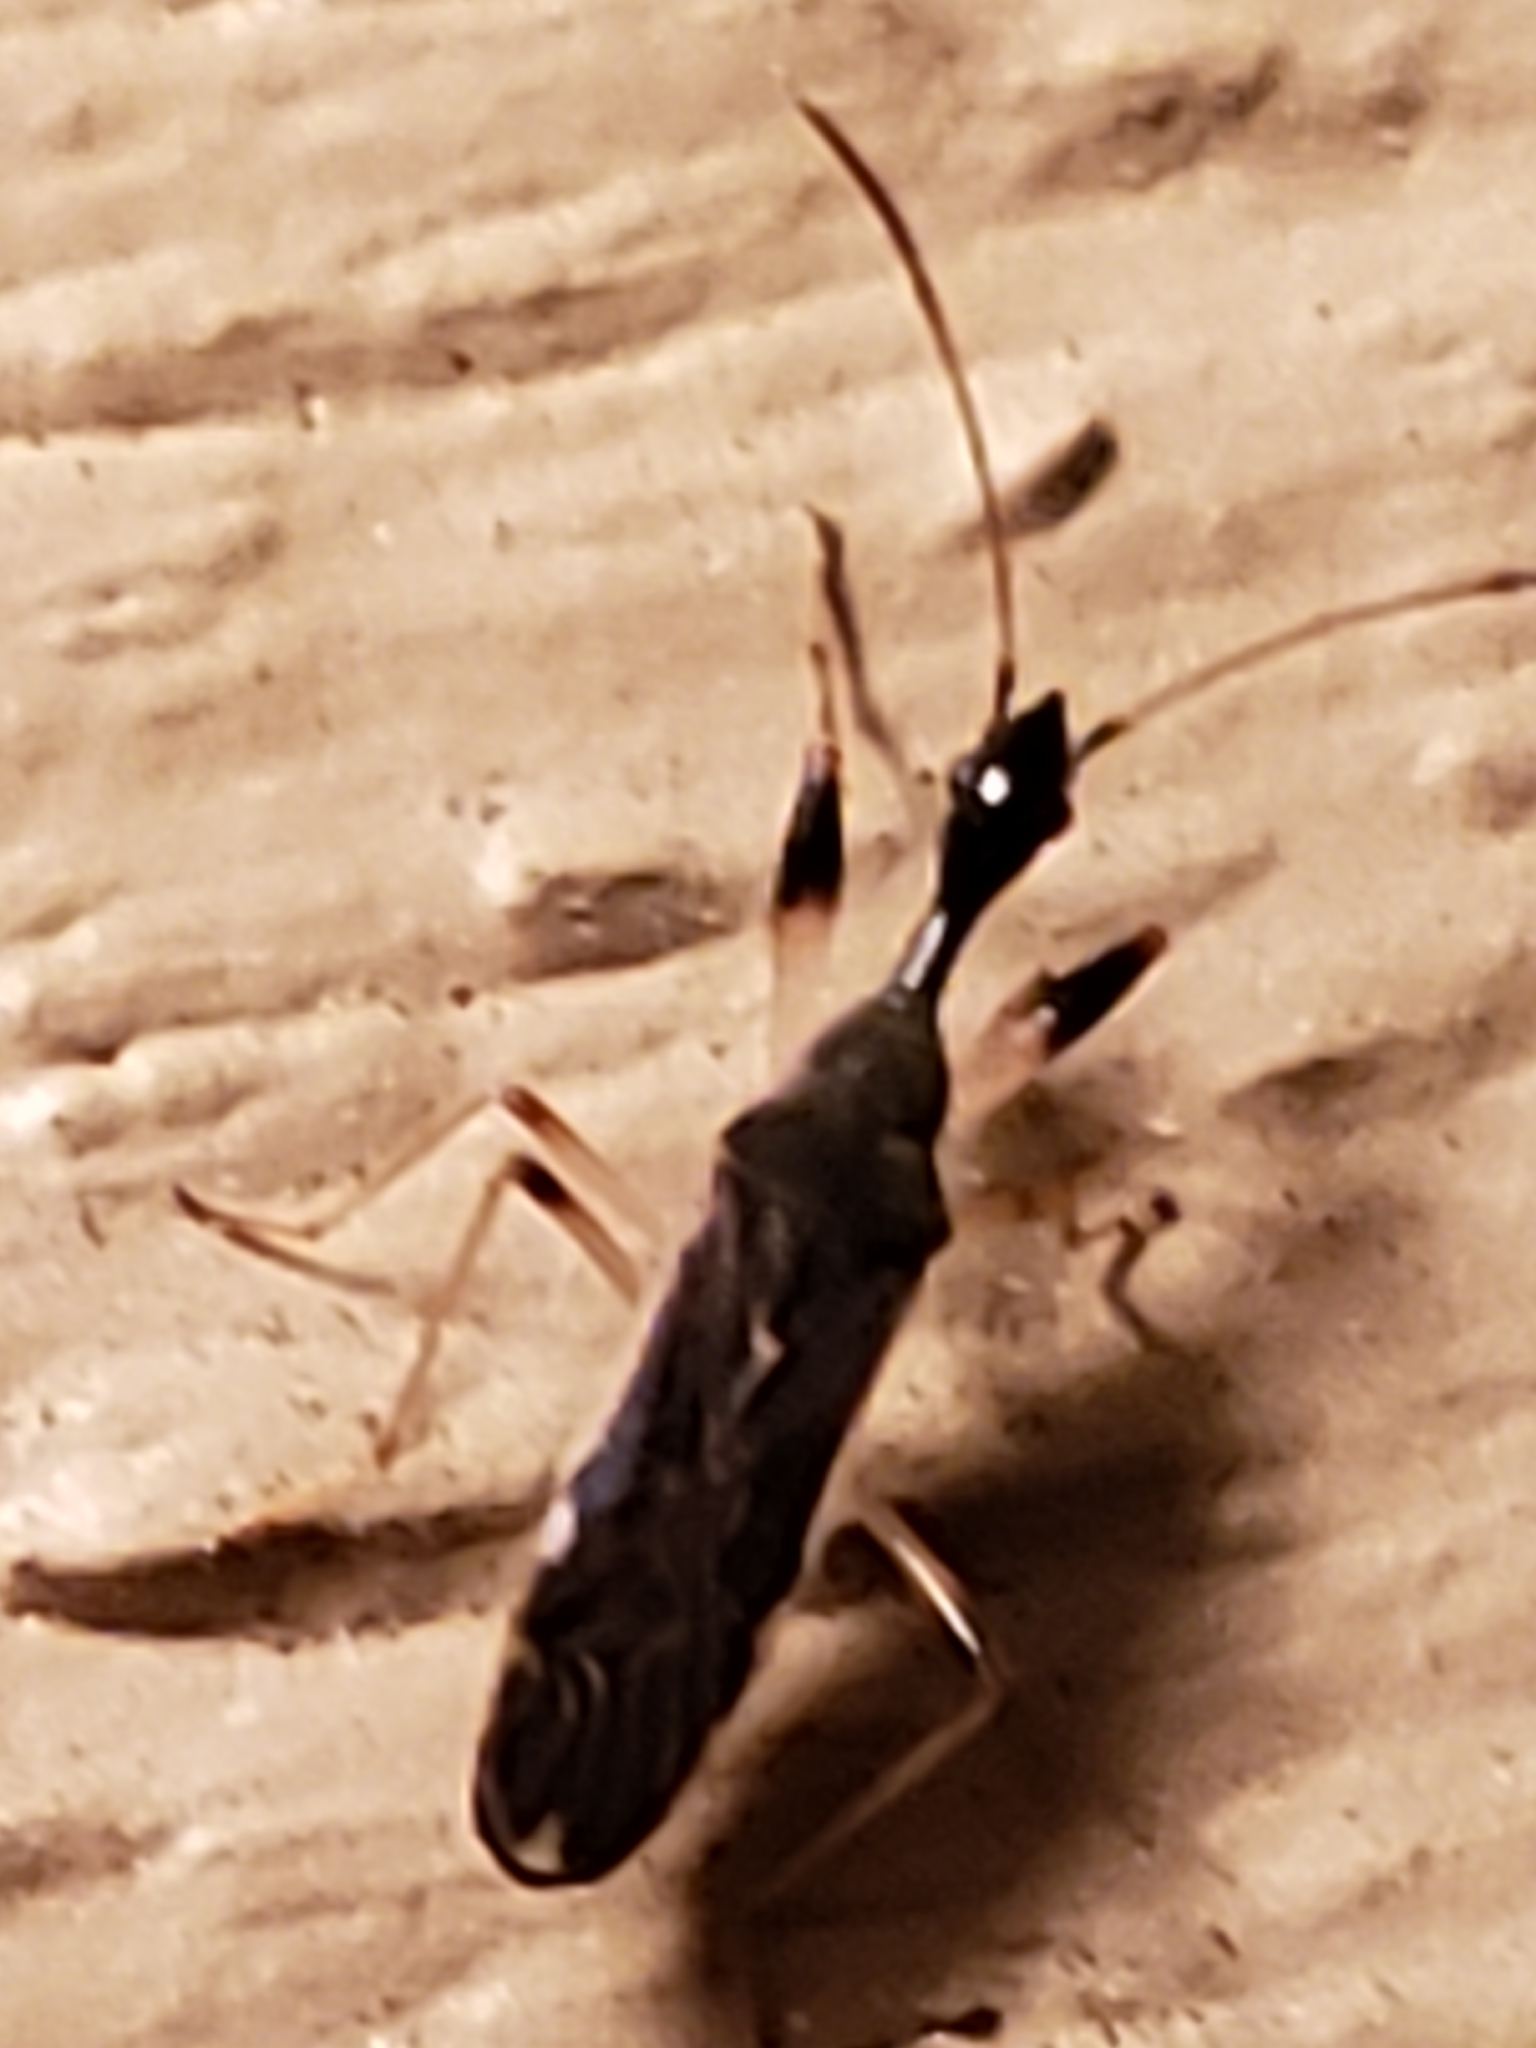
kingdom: Animalia
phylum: Arthropoda
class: Insecta
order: Hemiptera
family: Rhyparochromidae
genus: Myodocha
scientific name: Myodocha serripes
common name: Long-necked seed bug
